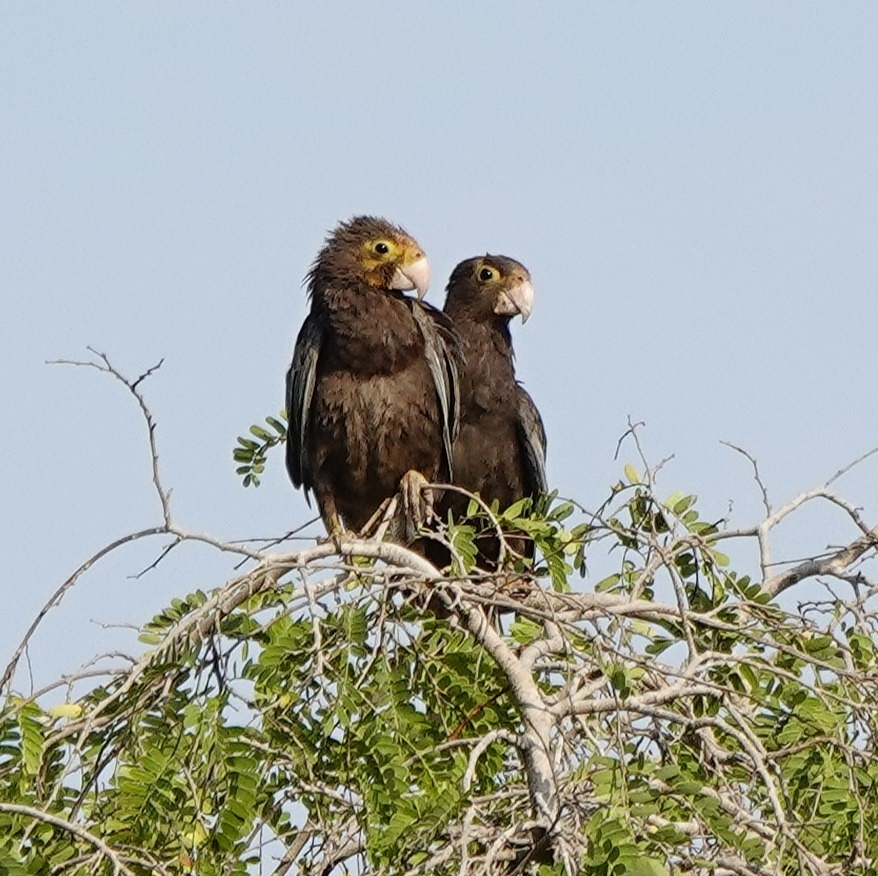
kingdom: Animalia
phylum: Chordata
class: Aves
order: Psittaciformes
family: Psittacidae
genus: Coracopsis
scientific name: Coracopsis vasa
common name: Greater vasa parrot
